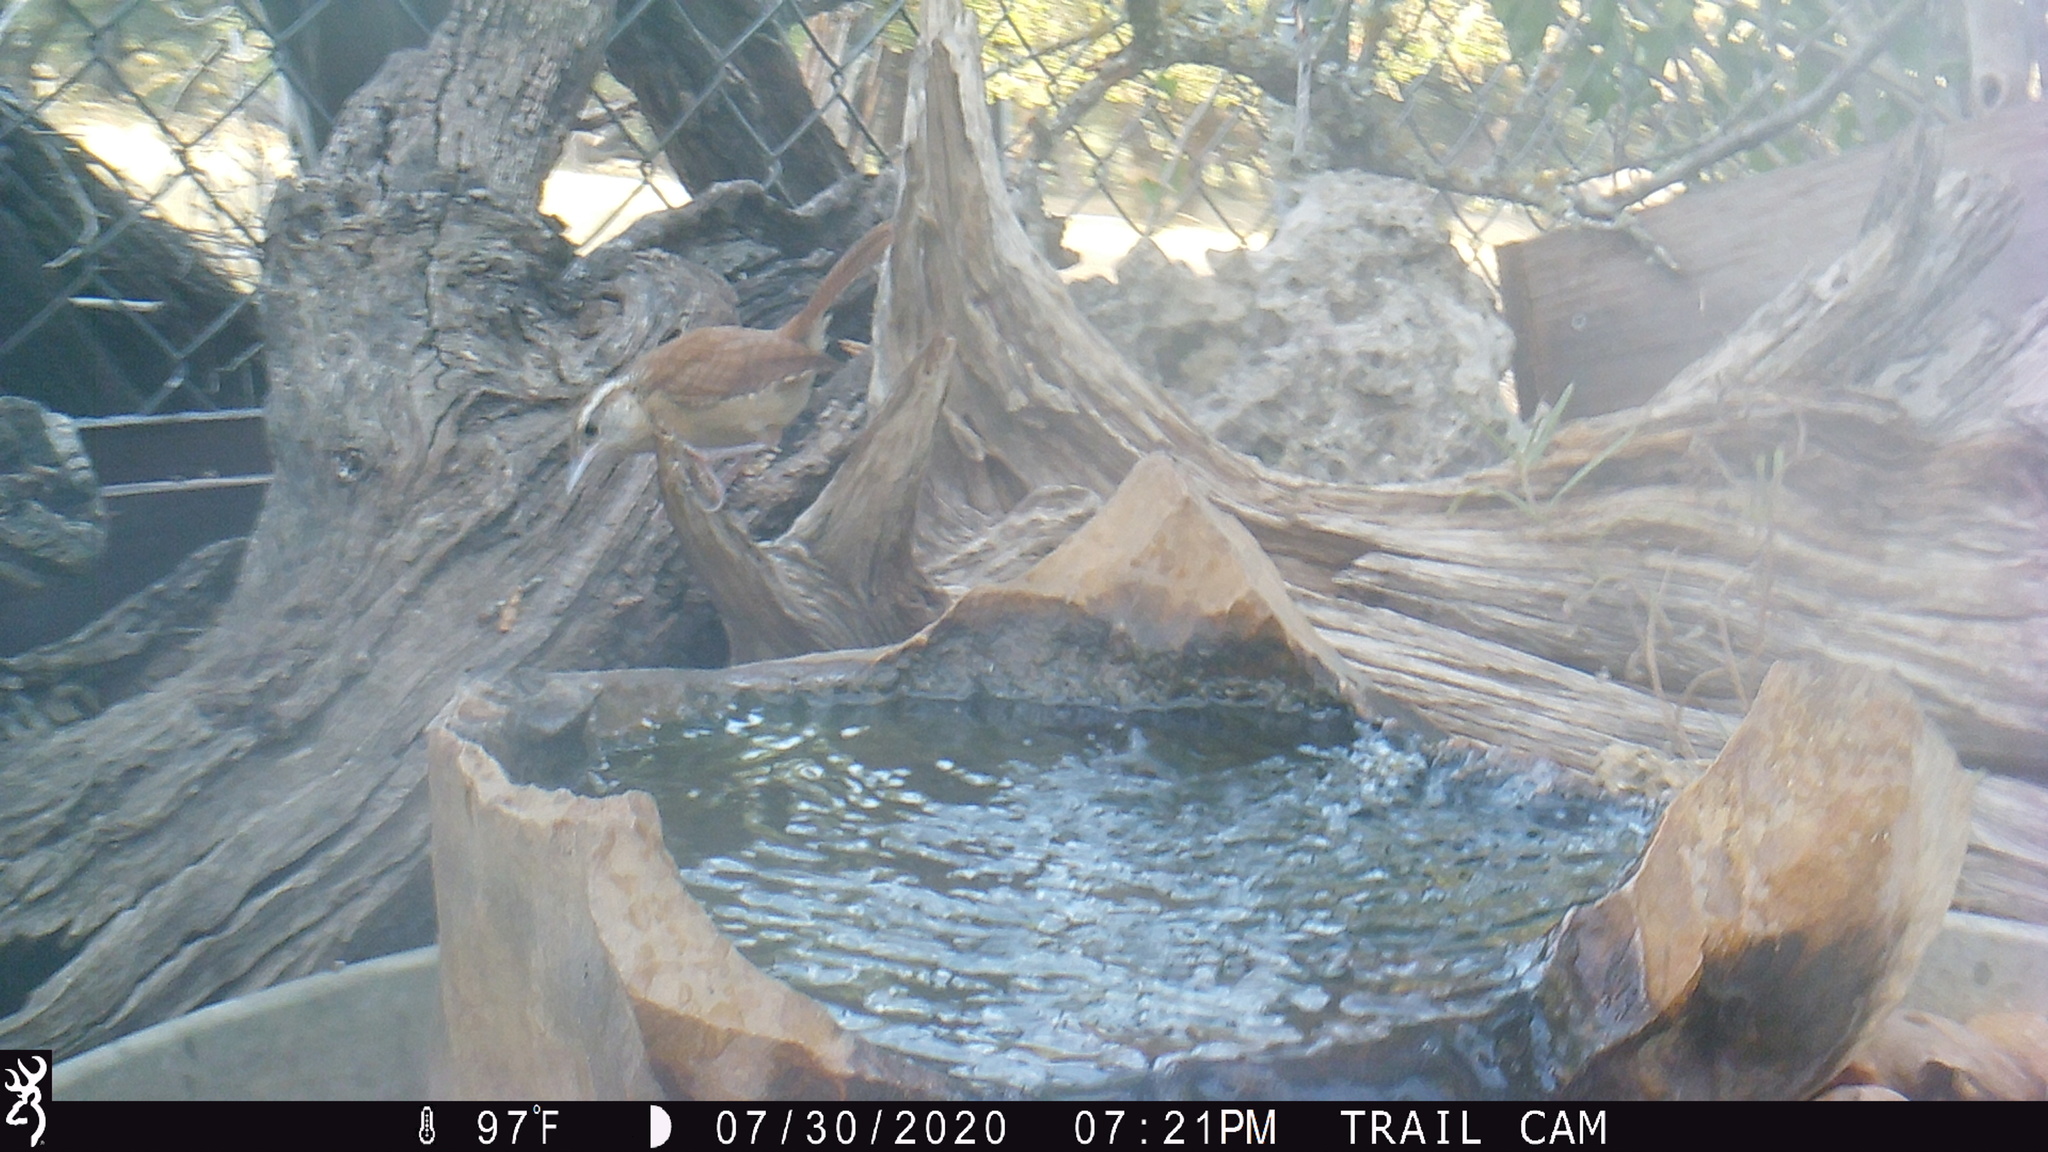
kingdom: Animalia
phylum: Chordata
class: Aves
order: Passeriformes
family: Troglodytidae
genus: Thryothorus
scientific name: Thryothorus ludovicianus
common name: Carolina wren
